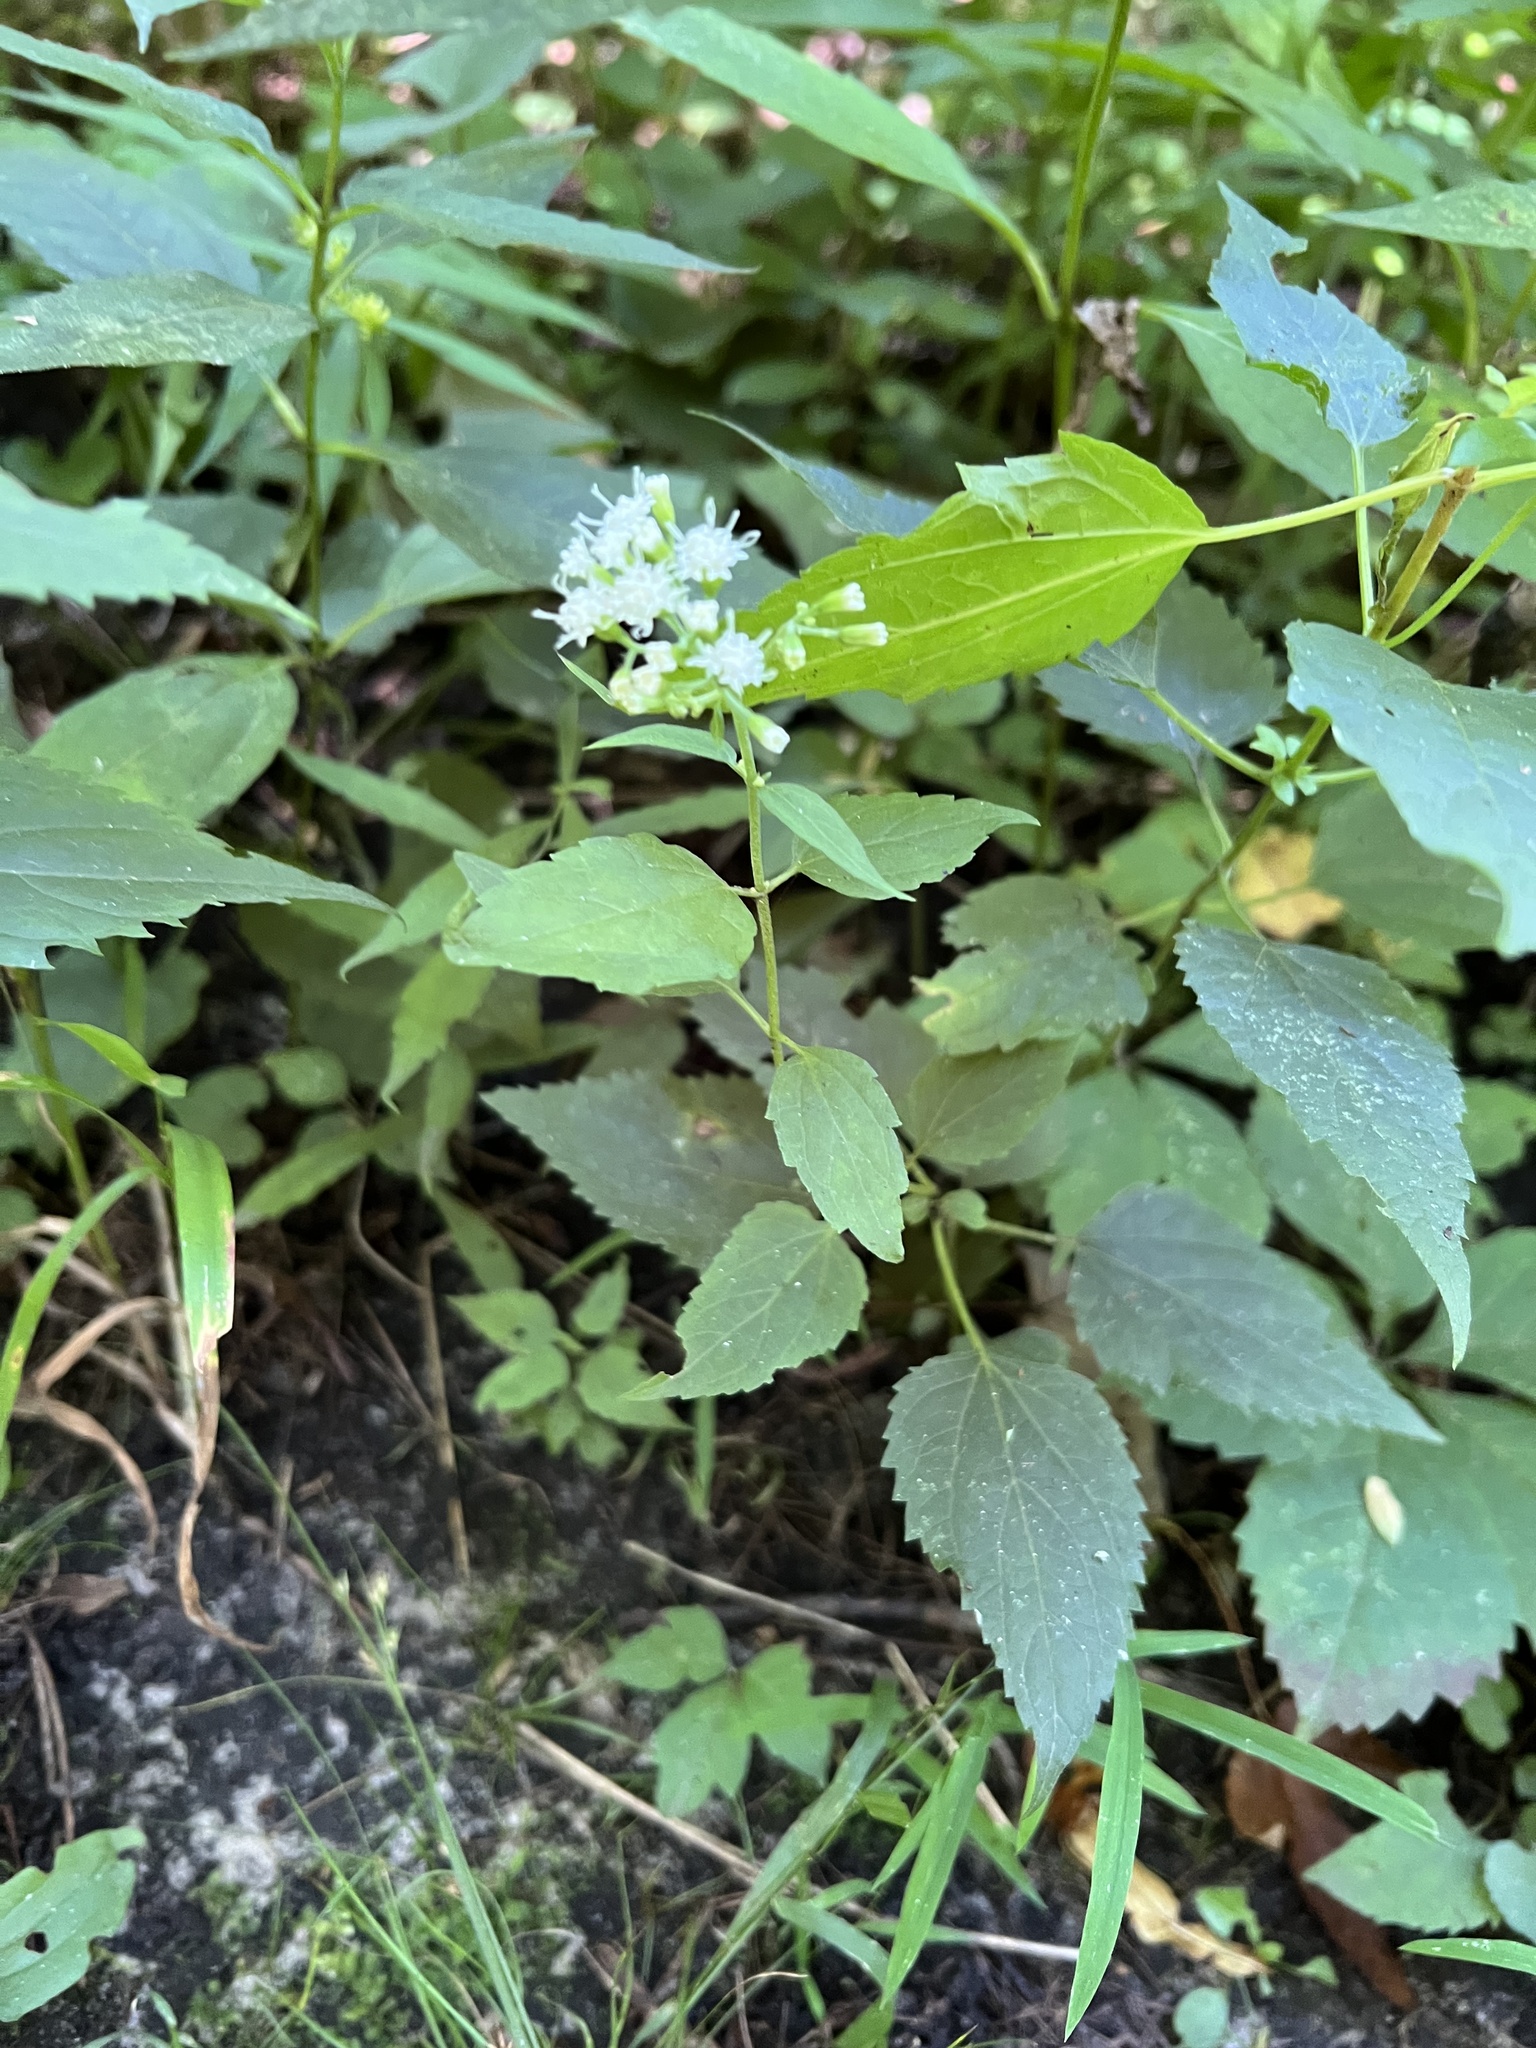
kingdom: Plantae
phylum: Tracheophyta
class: Magnoliopsida
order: Asterales
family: Asteraceae
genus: Ageratina
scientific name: Ageratina altissima
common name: White snakeroot
